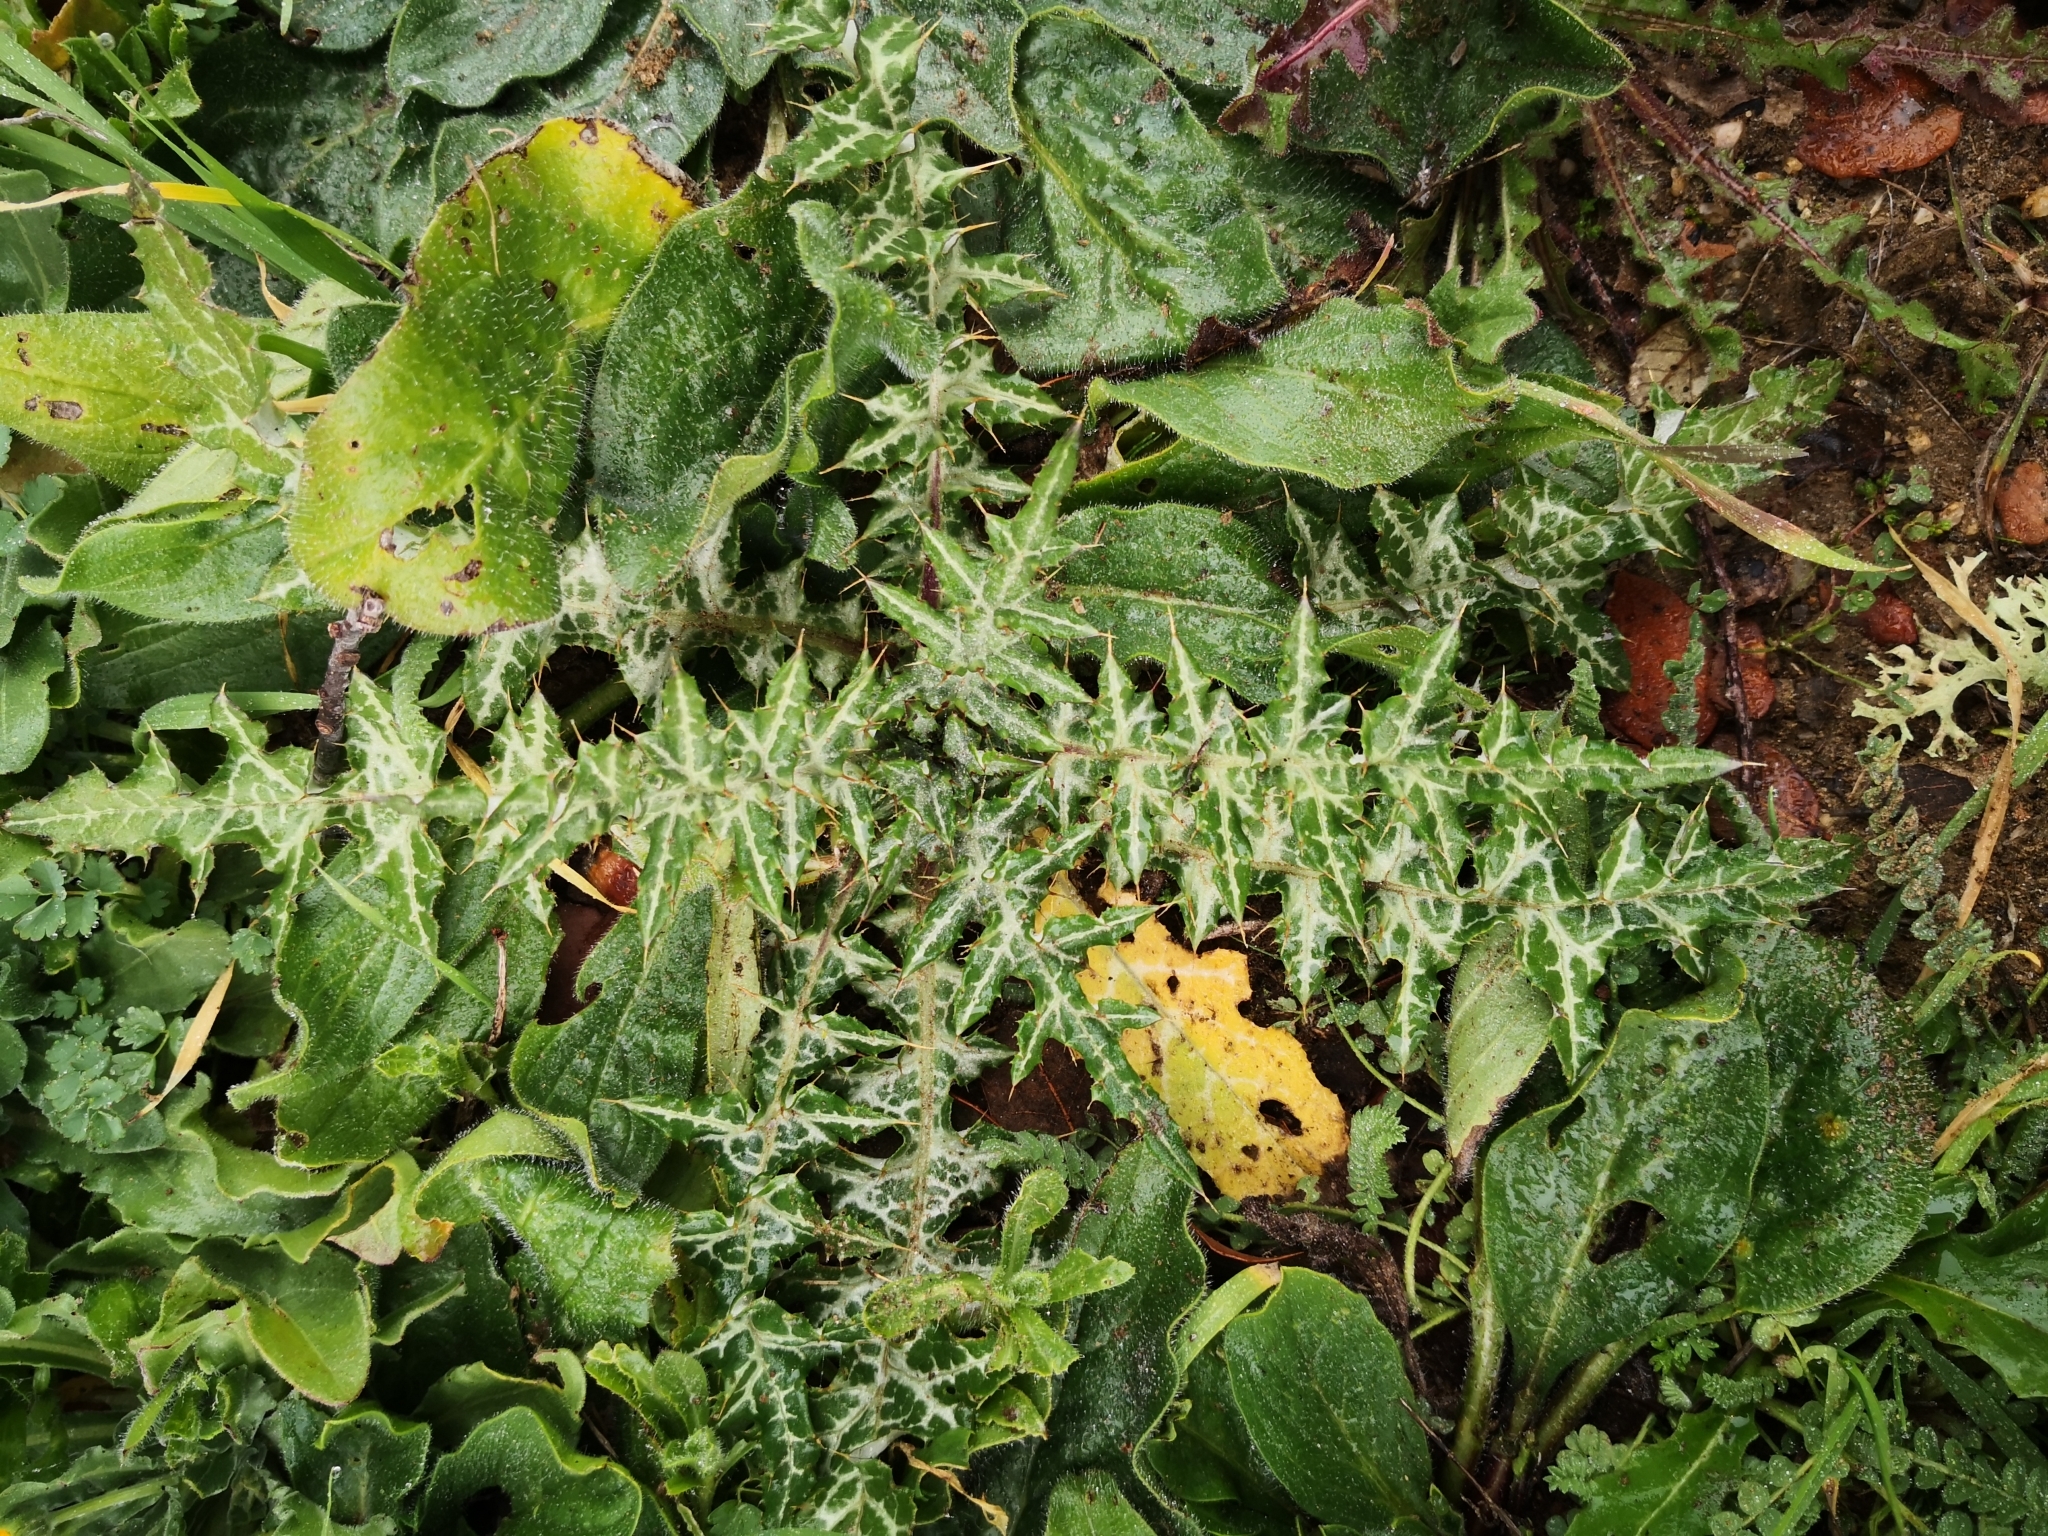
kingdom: Plantae
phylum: Tracheophyta
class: Magnoliopsida
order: Asterales
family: Asteraceae
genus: Galactites
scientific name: Galactites tomentosa
